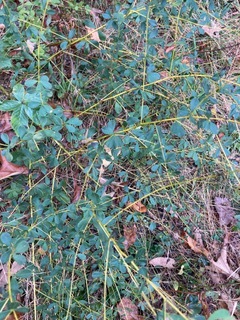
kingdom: Plantae
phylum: Tracheophyta
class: Magnoliopsida
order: Fabales
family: Fabaceae
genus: Baptisia
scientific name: Baptisia tinctoria
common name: Wild indigo
